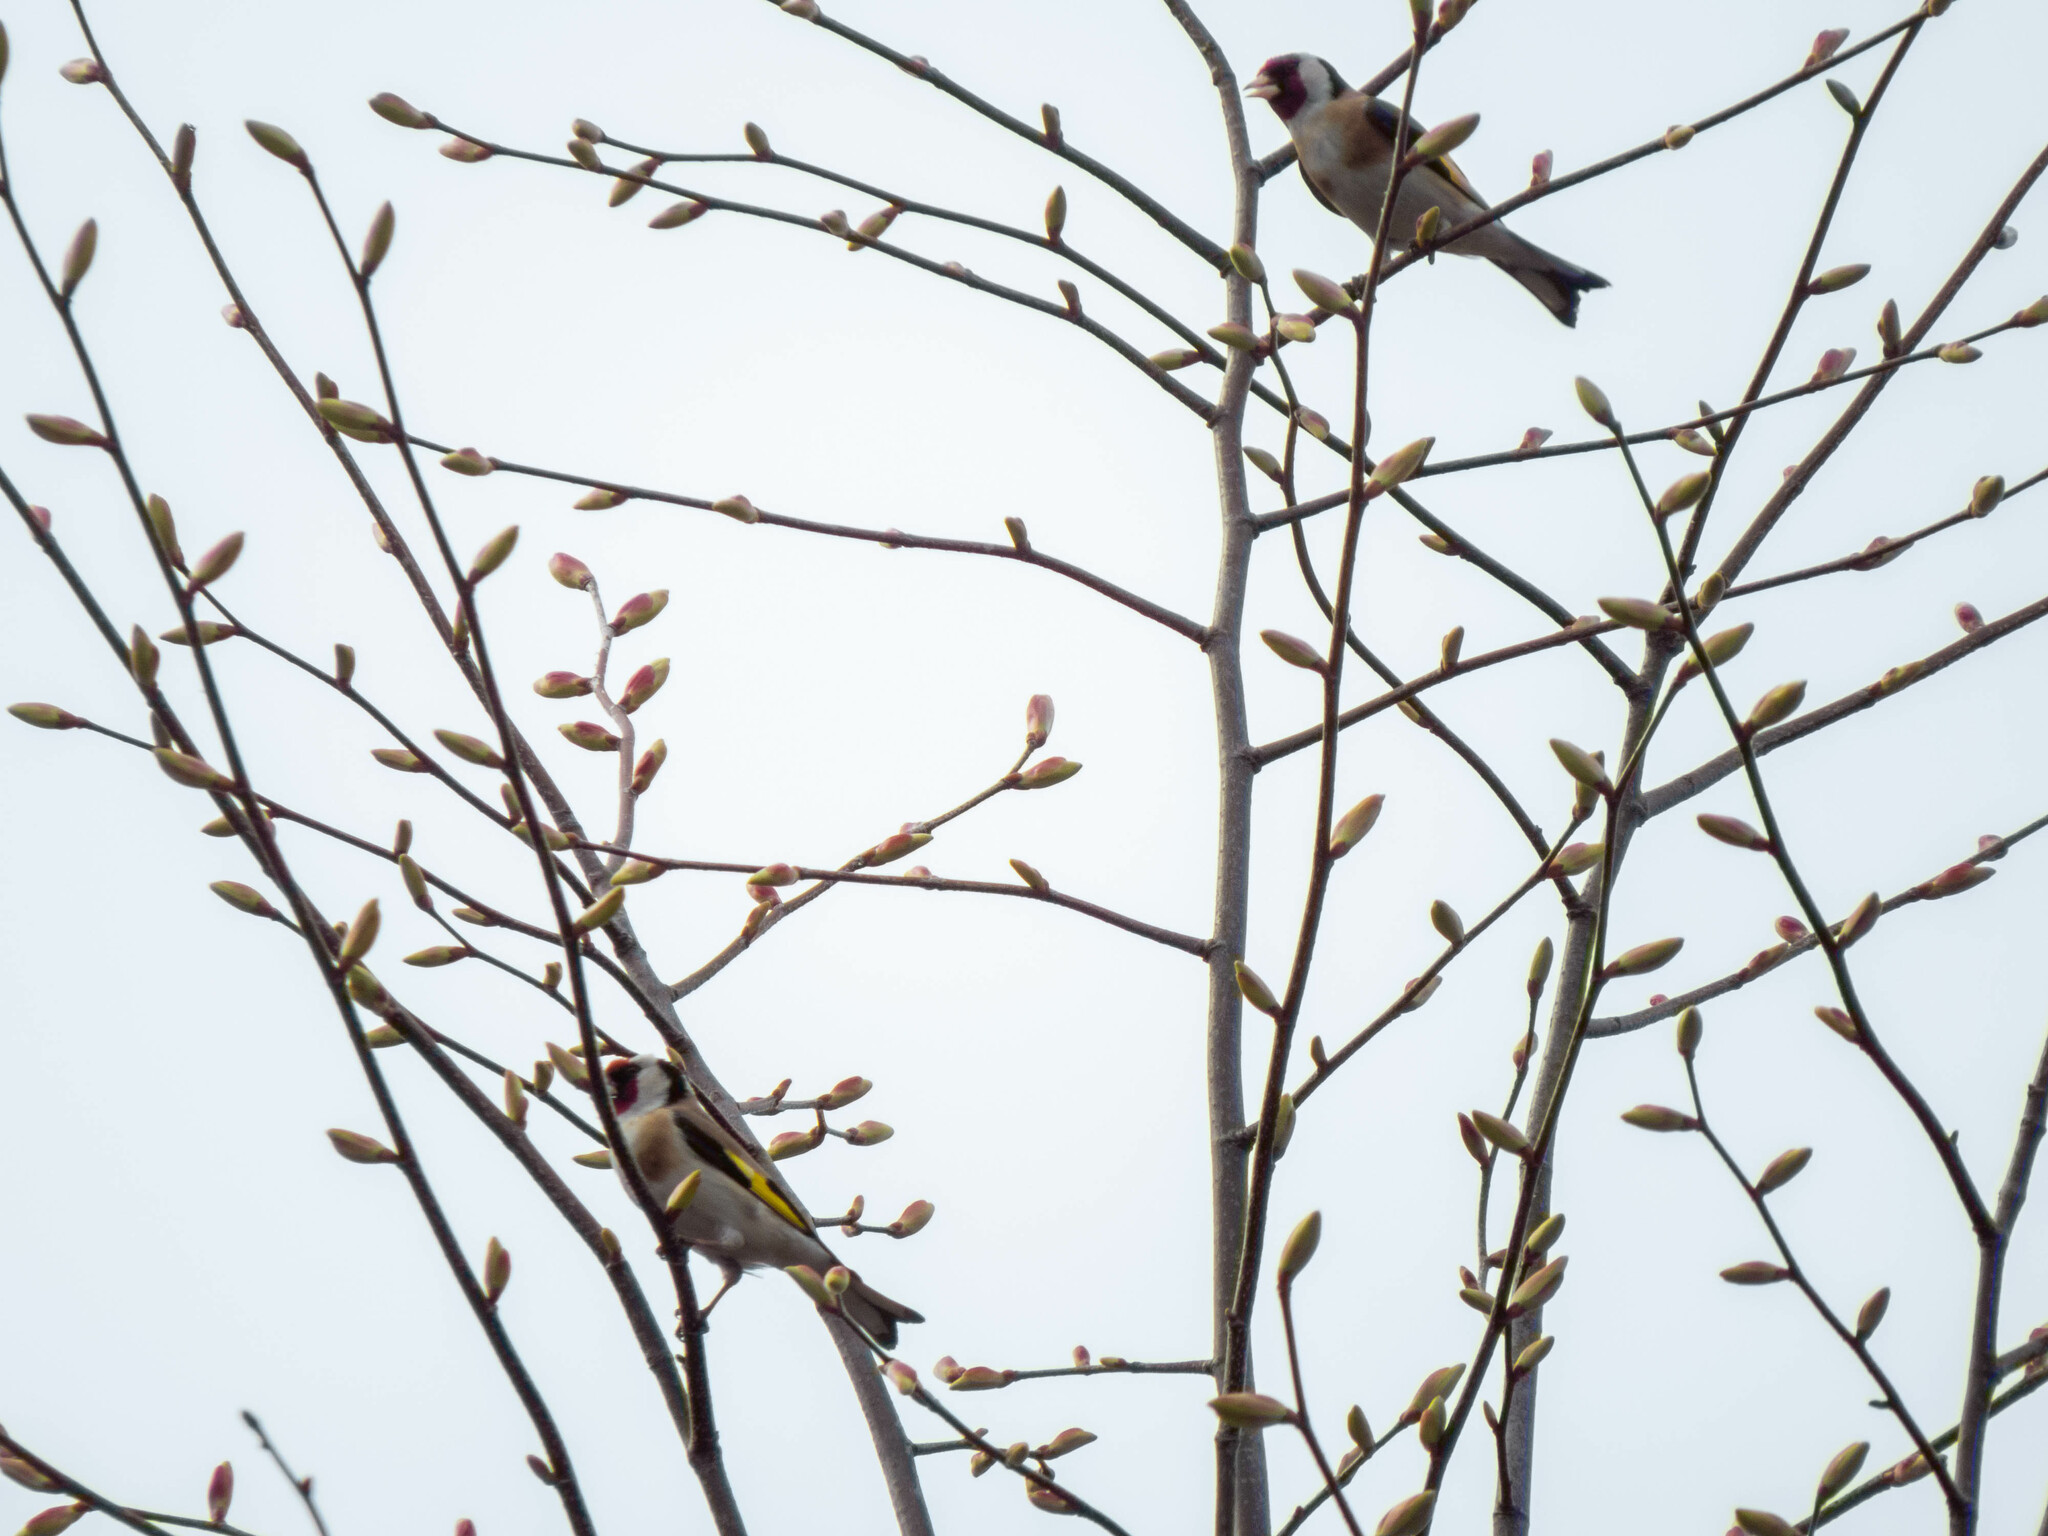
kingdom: Animalia
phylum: Chordata
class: Aves
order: Passeriformes
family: Fringillidae
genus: Carduelis
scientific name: Carduelis carduelis
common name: European goldfinch
